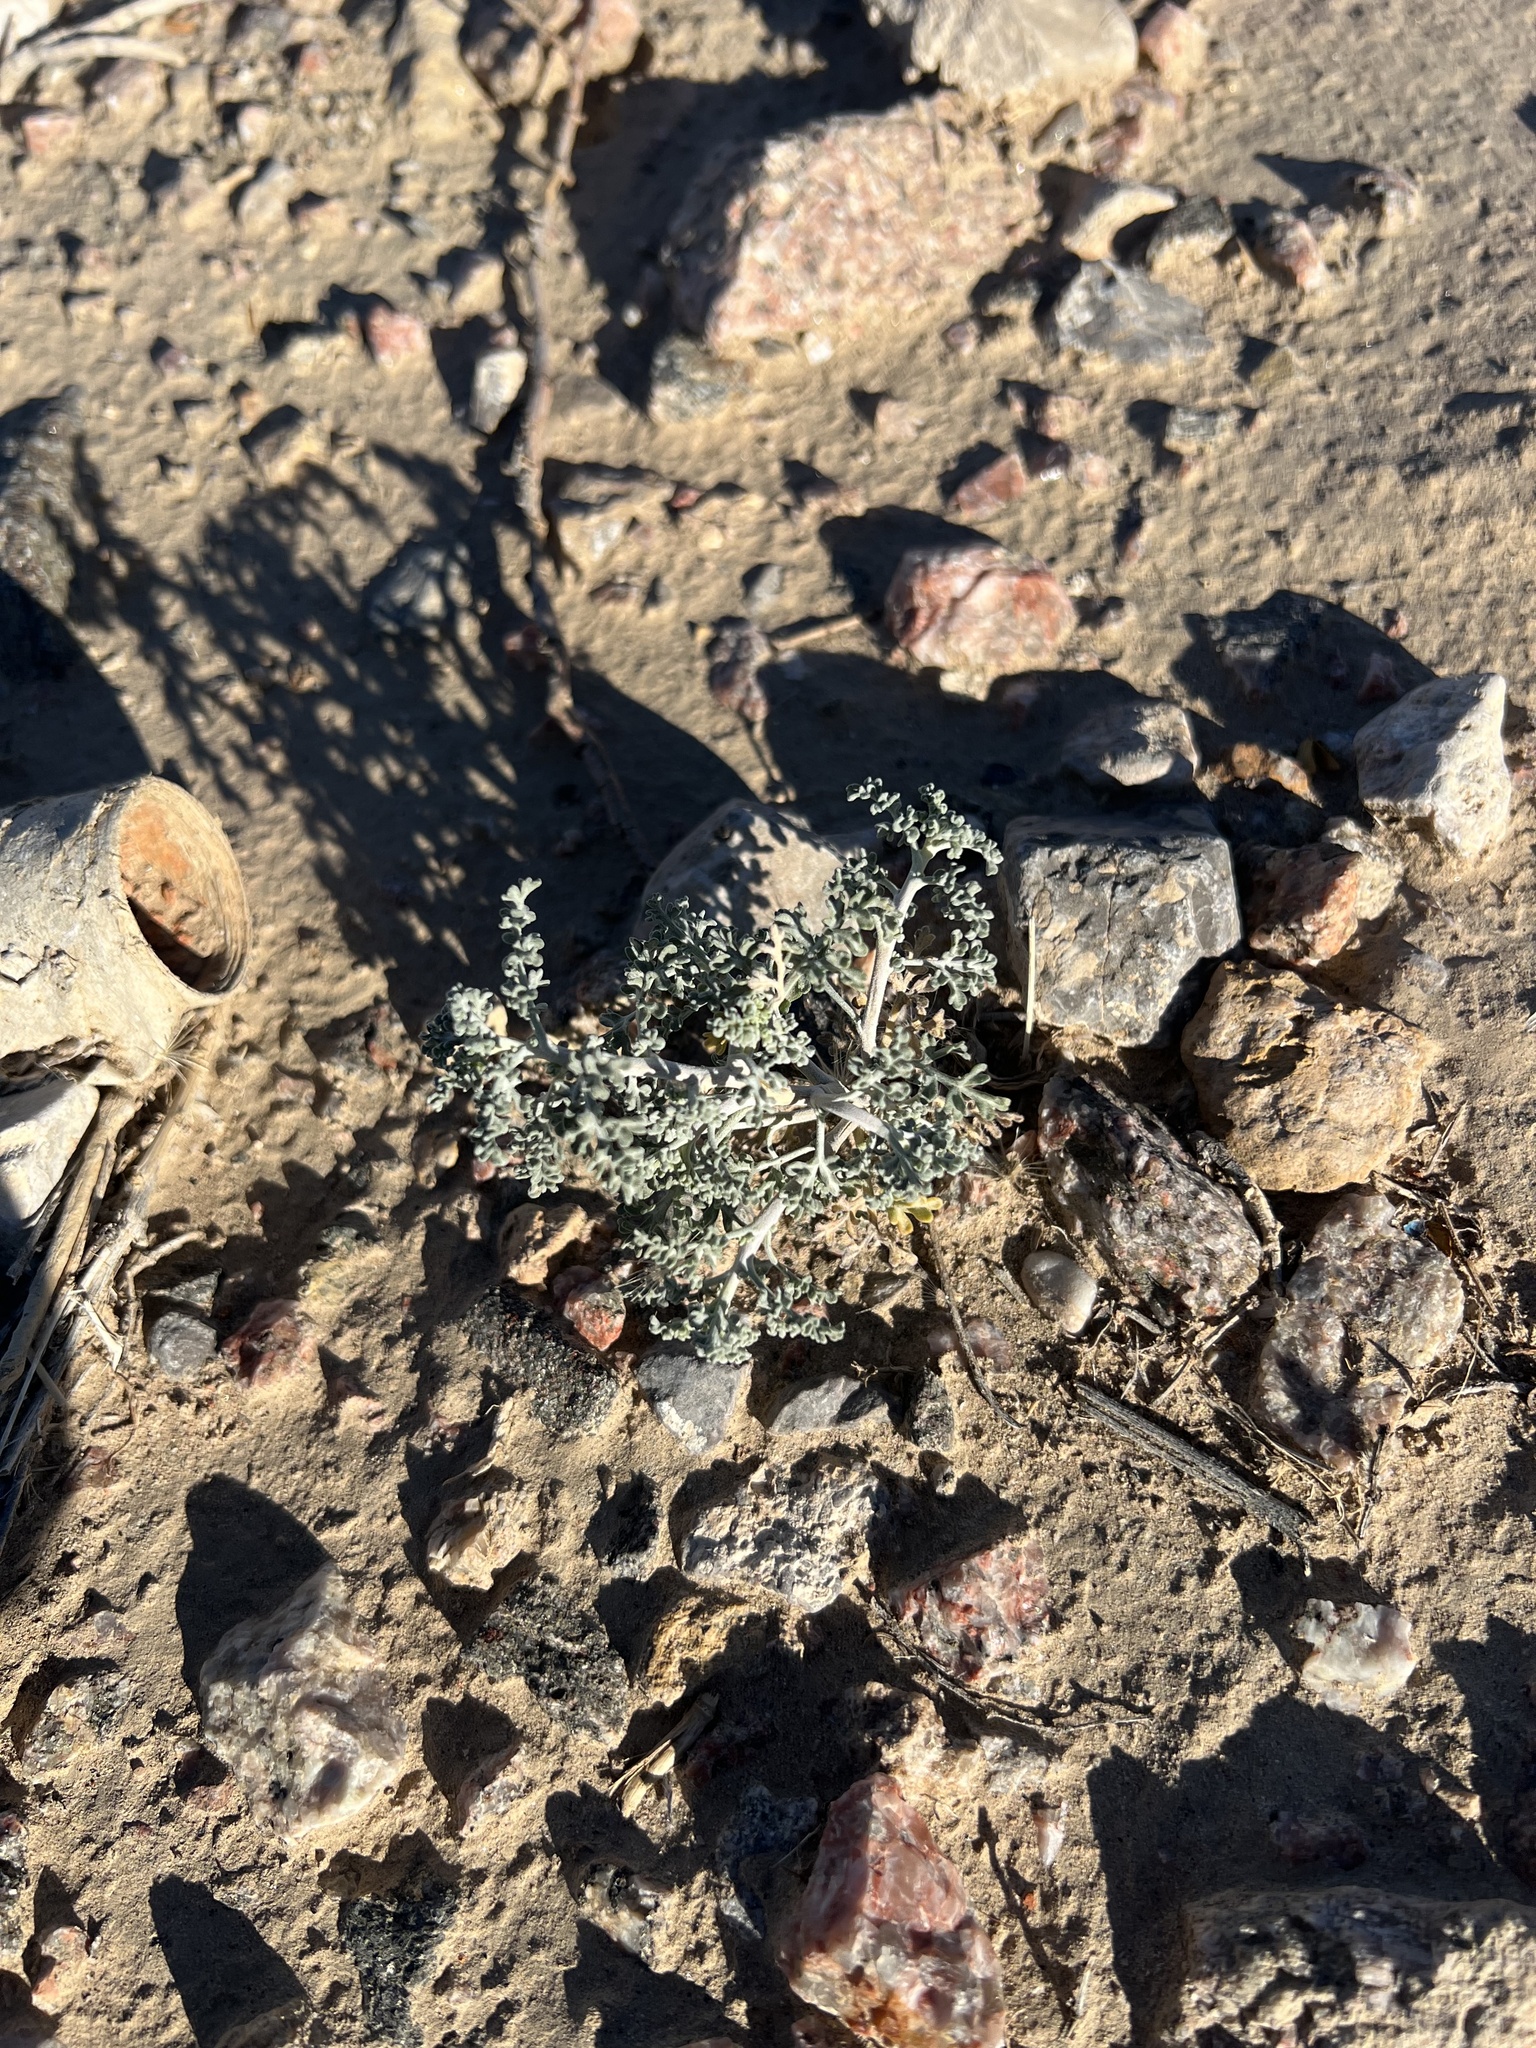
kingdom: Plantae
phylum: Tracheophyta
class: Magnoliopsida
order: Asterales
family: Asteraceae
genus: Ambrosia
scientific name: Ambrosia dumosa
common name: Bur-sage
